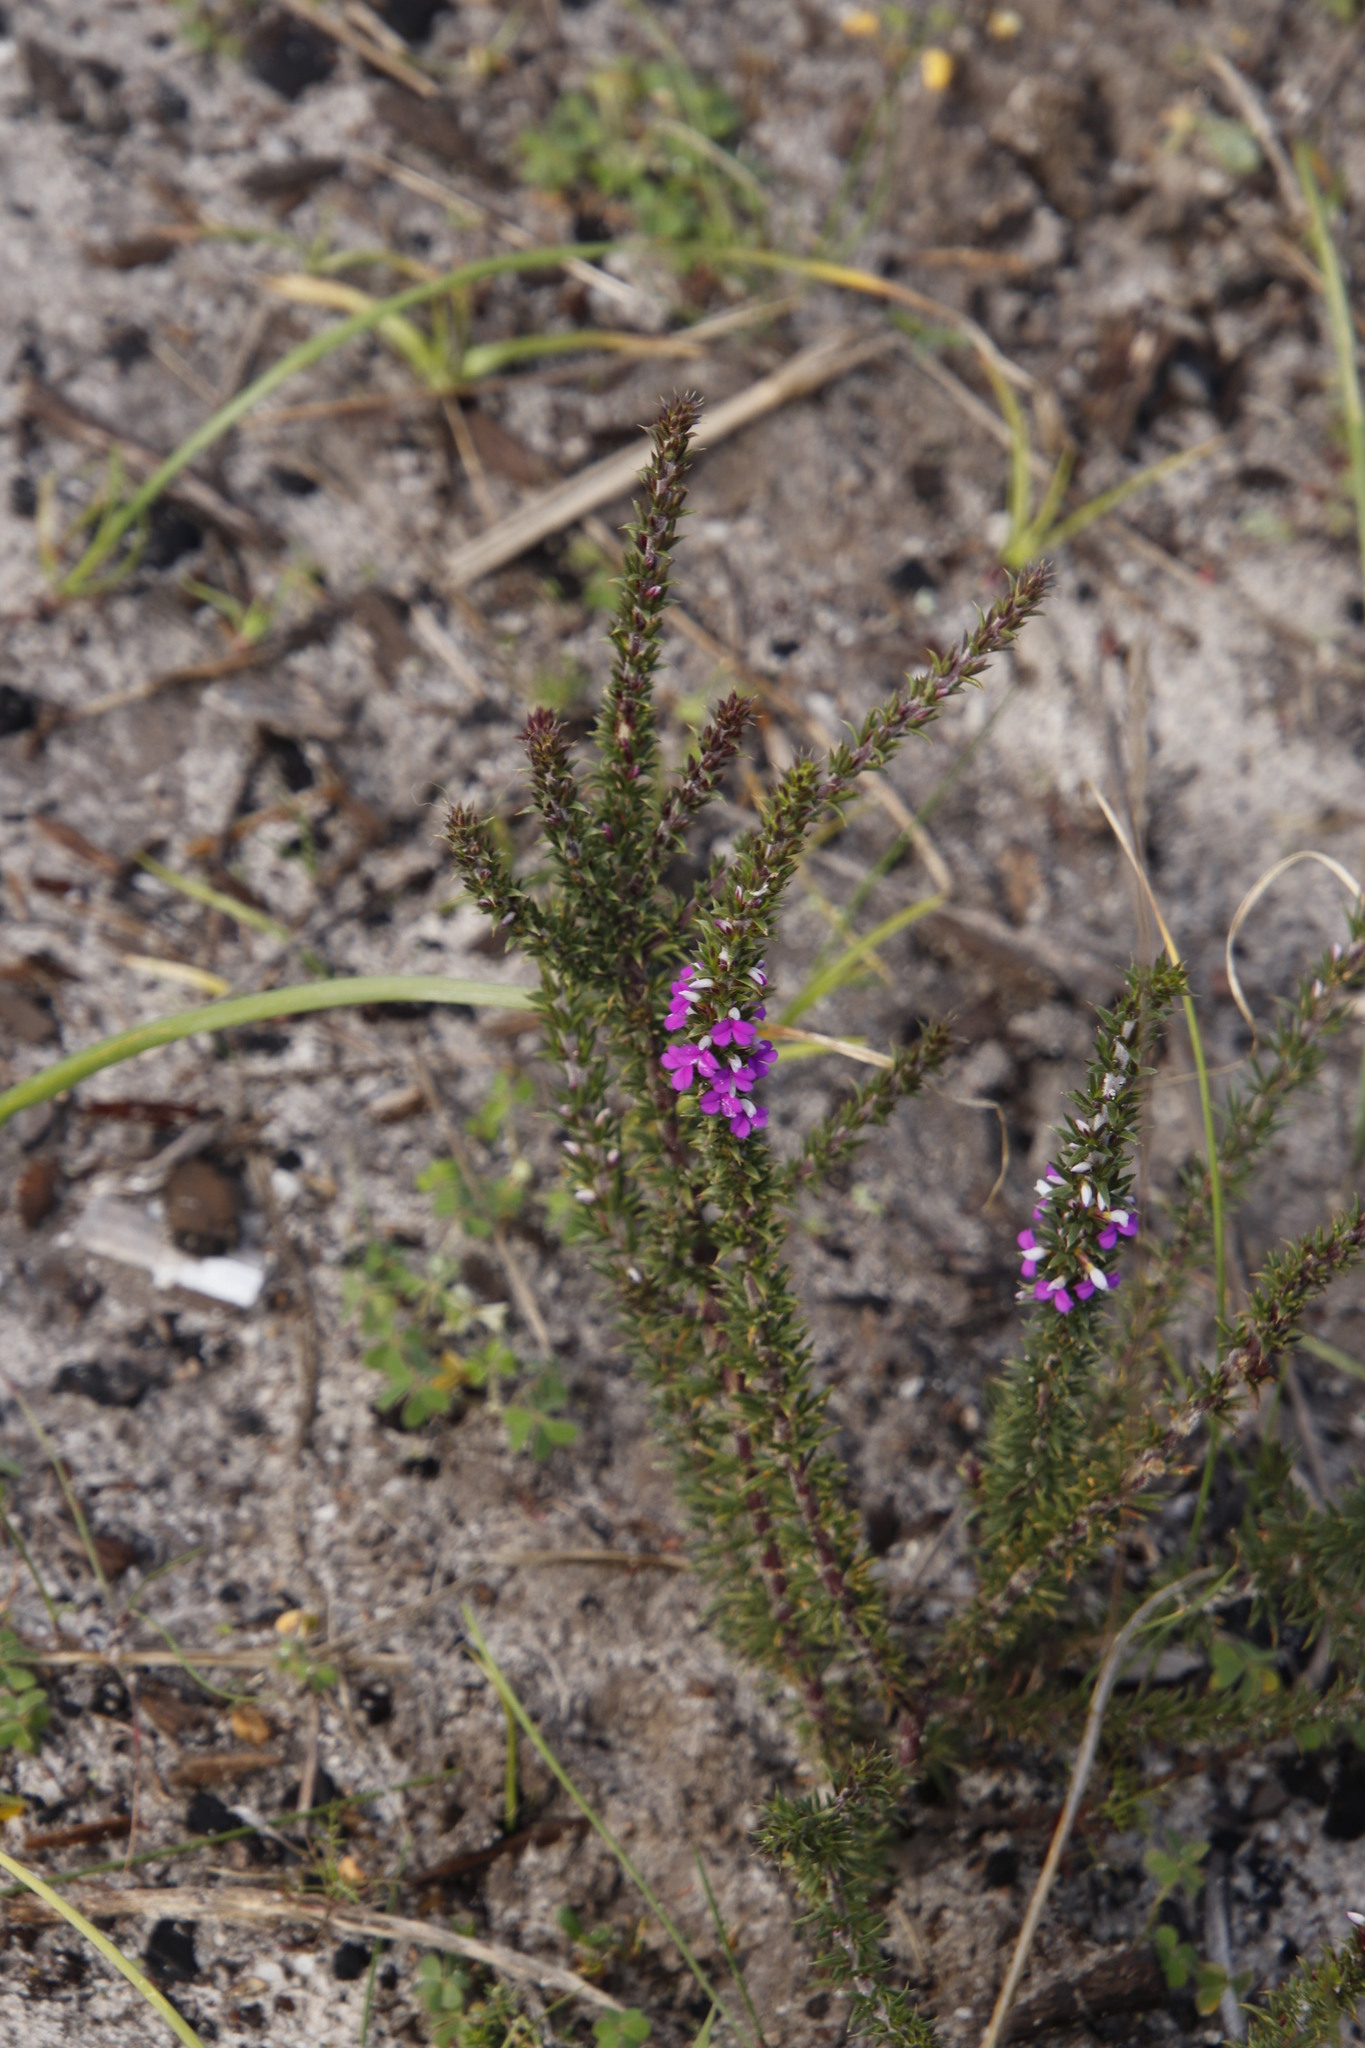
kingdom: Plantae
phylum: Tracheophyta
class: Magnoliopsida
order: Fabales
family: Polygalaceae
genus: Muraltia
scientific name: Muraltia heisteria
